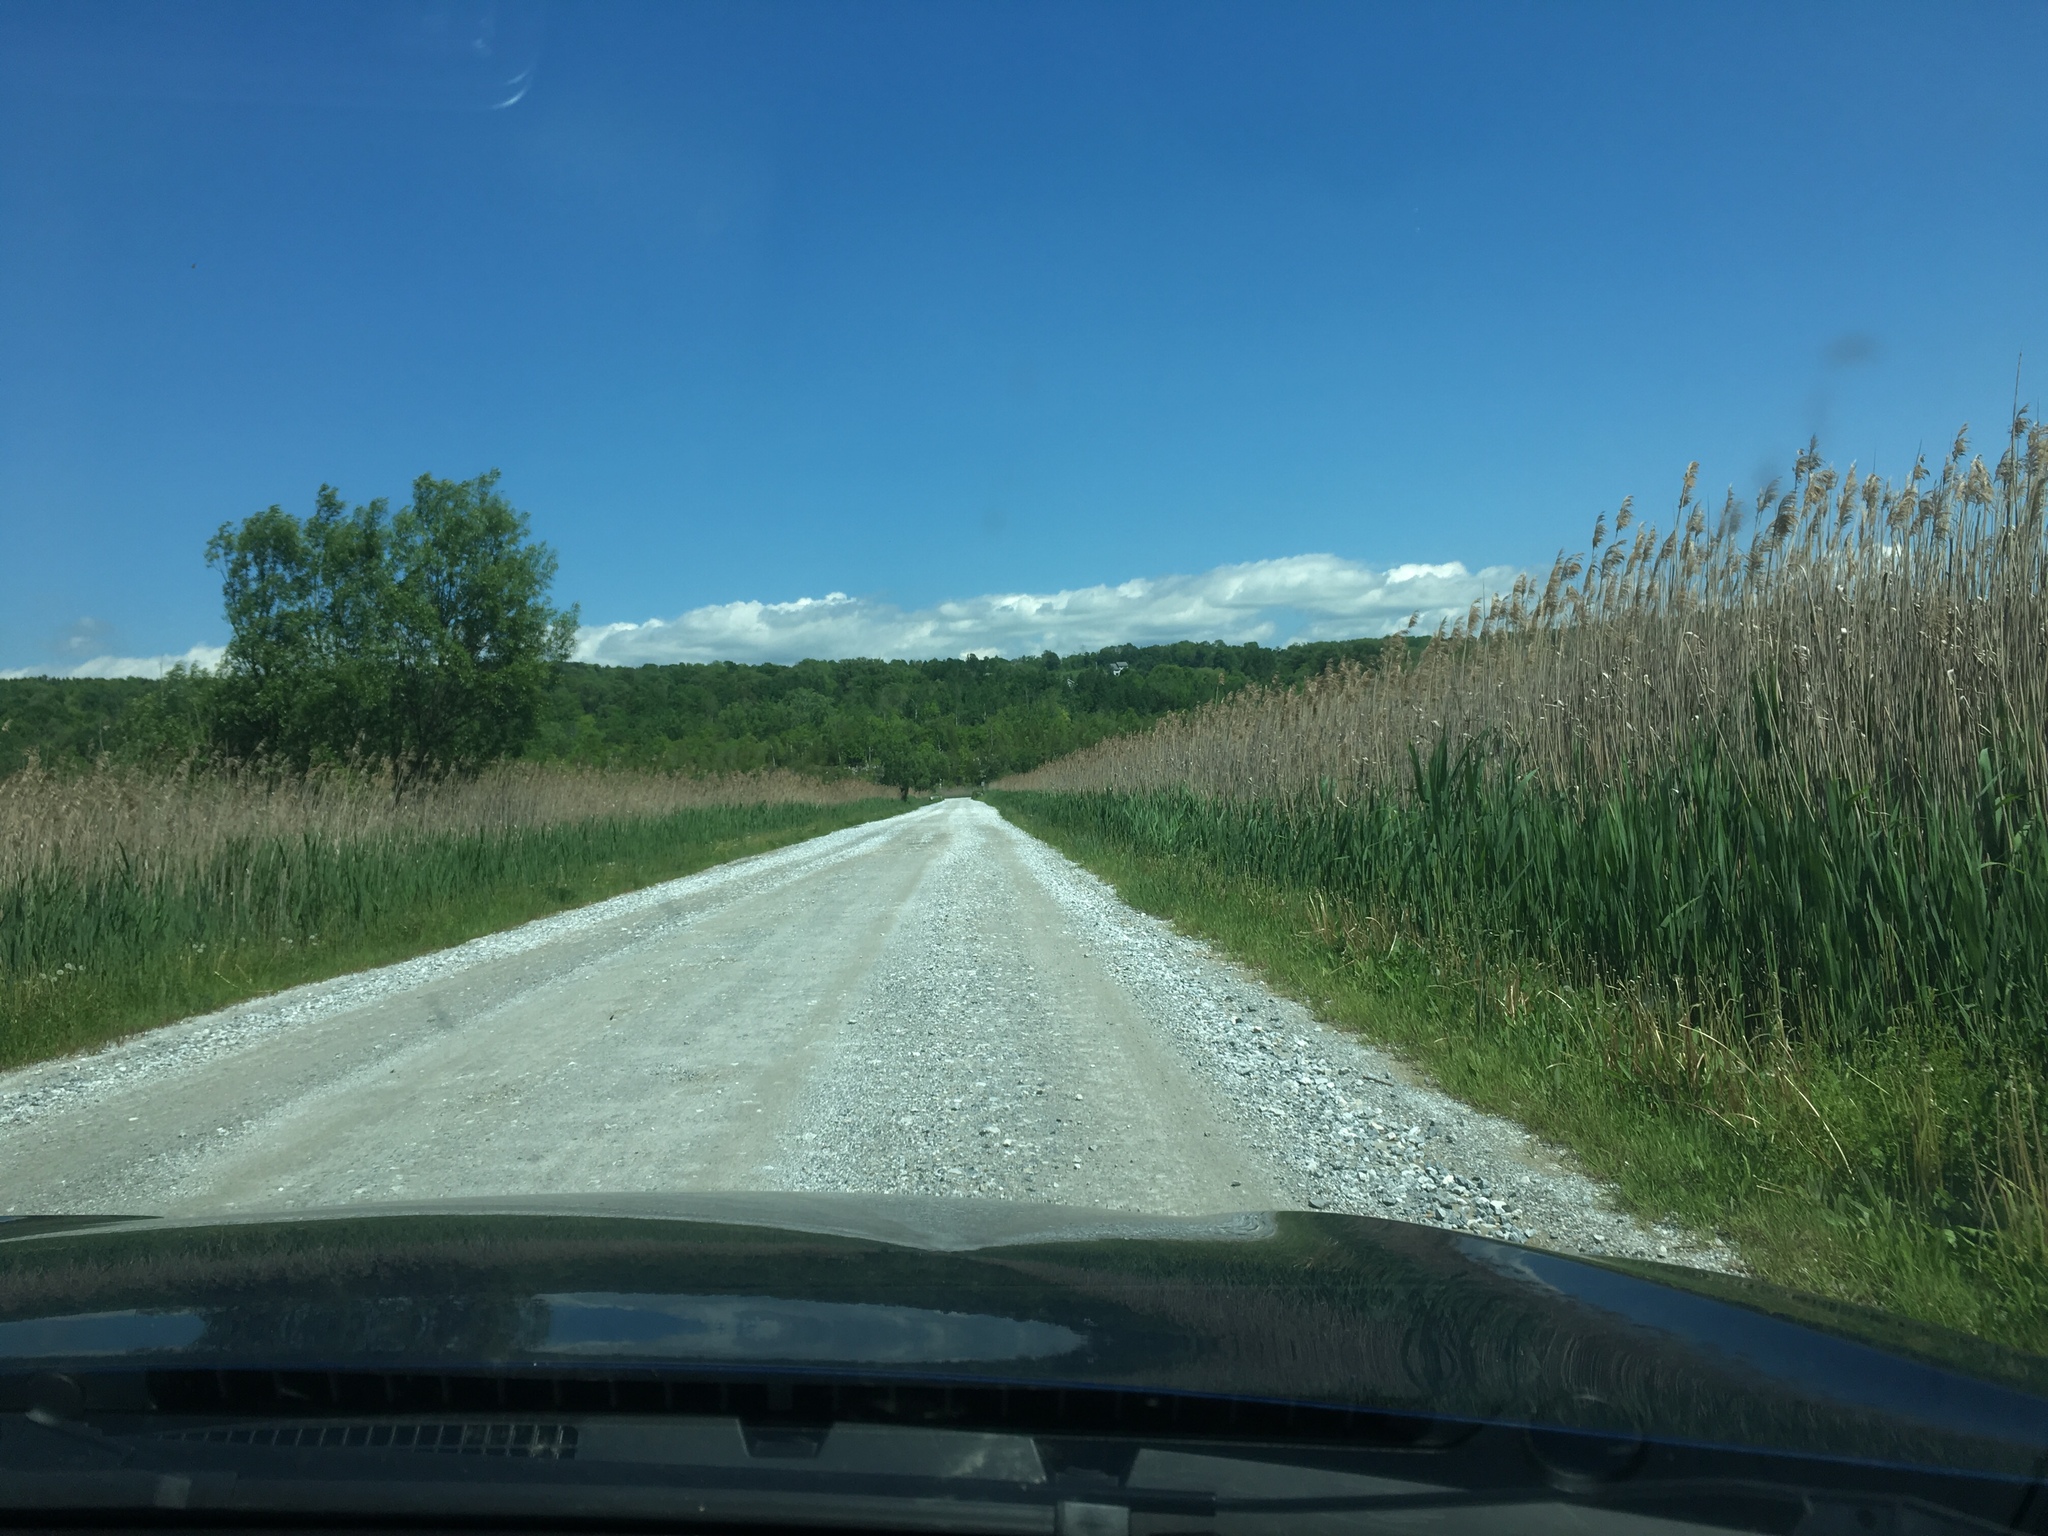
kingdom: Plantae
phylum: Tracheophyta
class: Liliopsida
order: Poales
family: Poaceae
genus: Phragmites
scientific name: Phragmites australis
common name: Common reed
